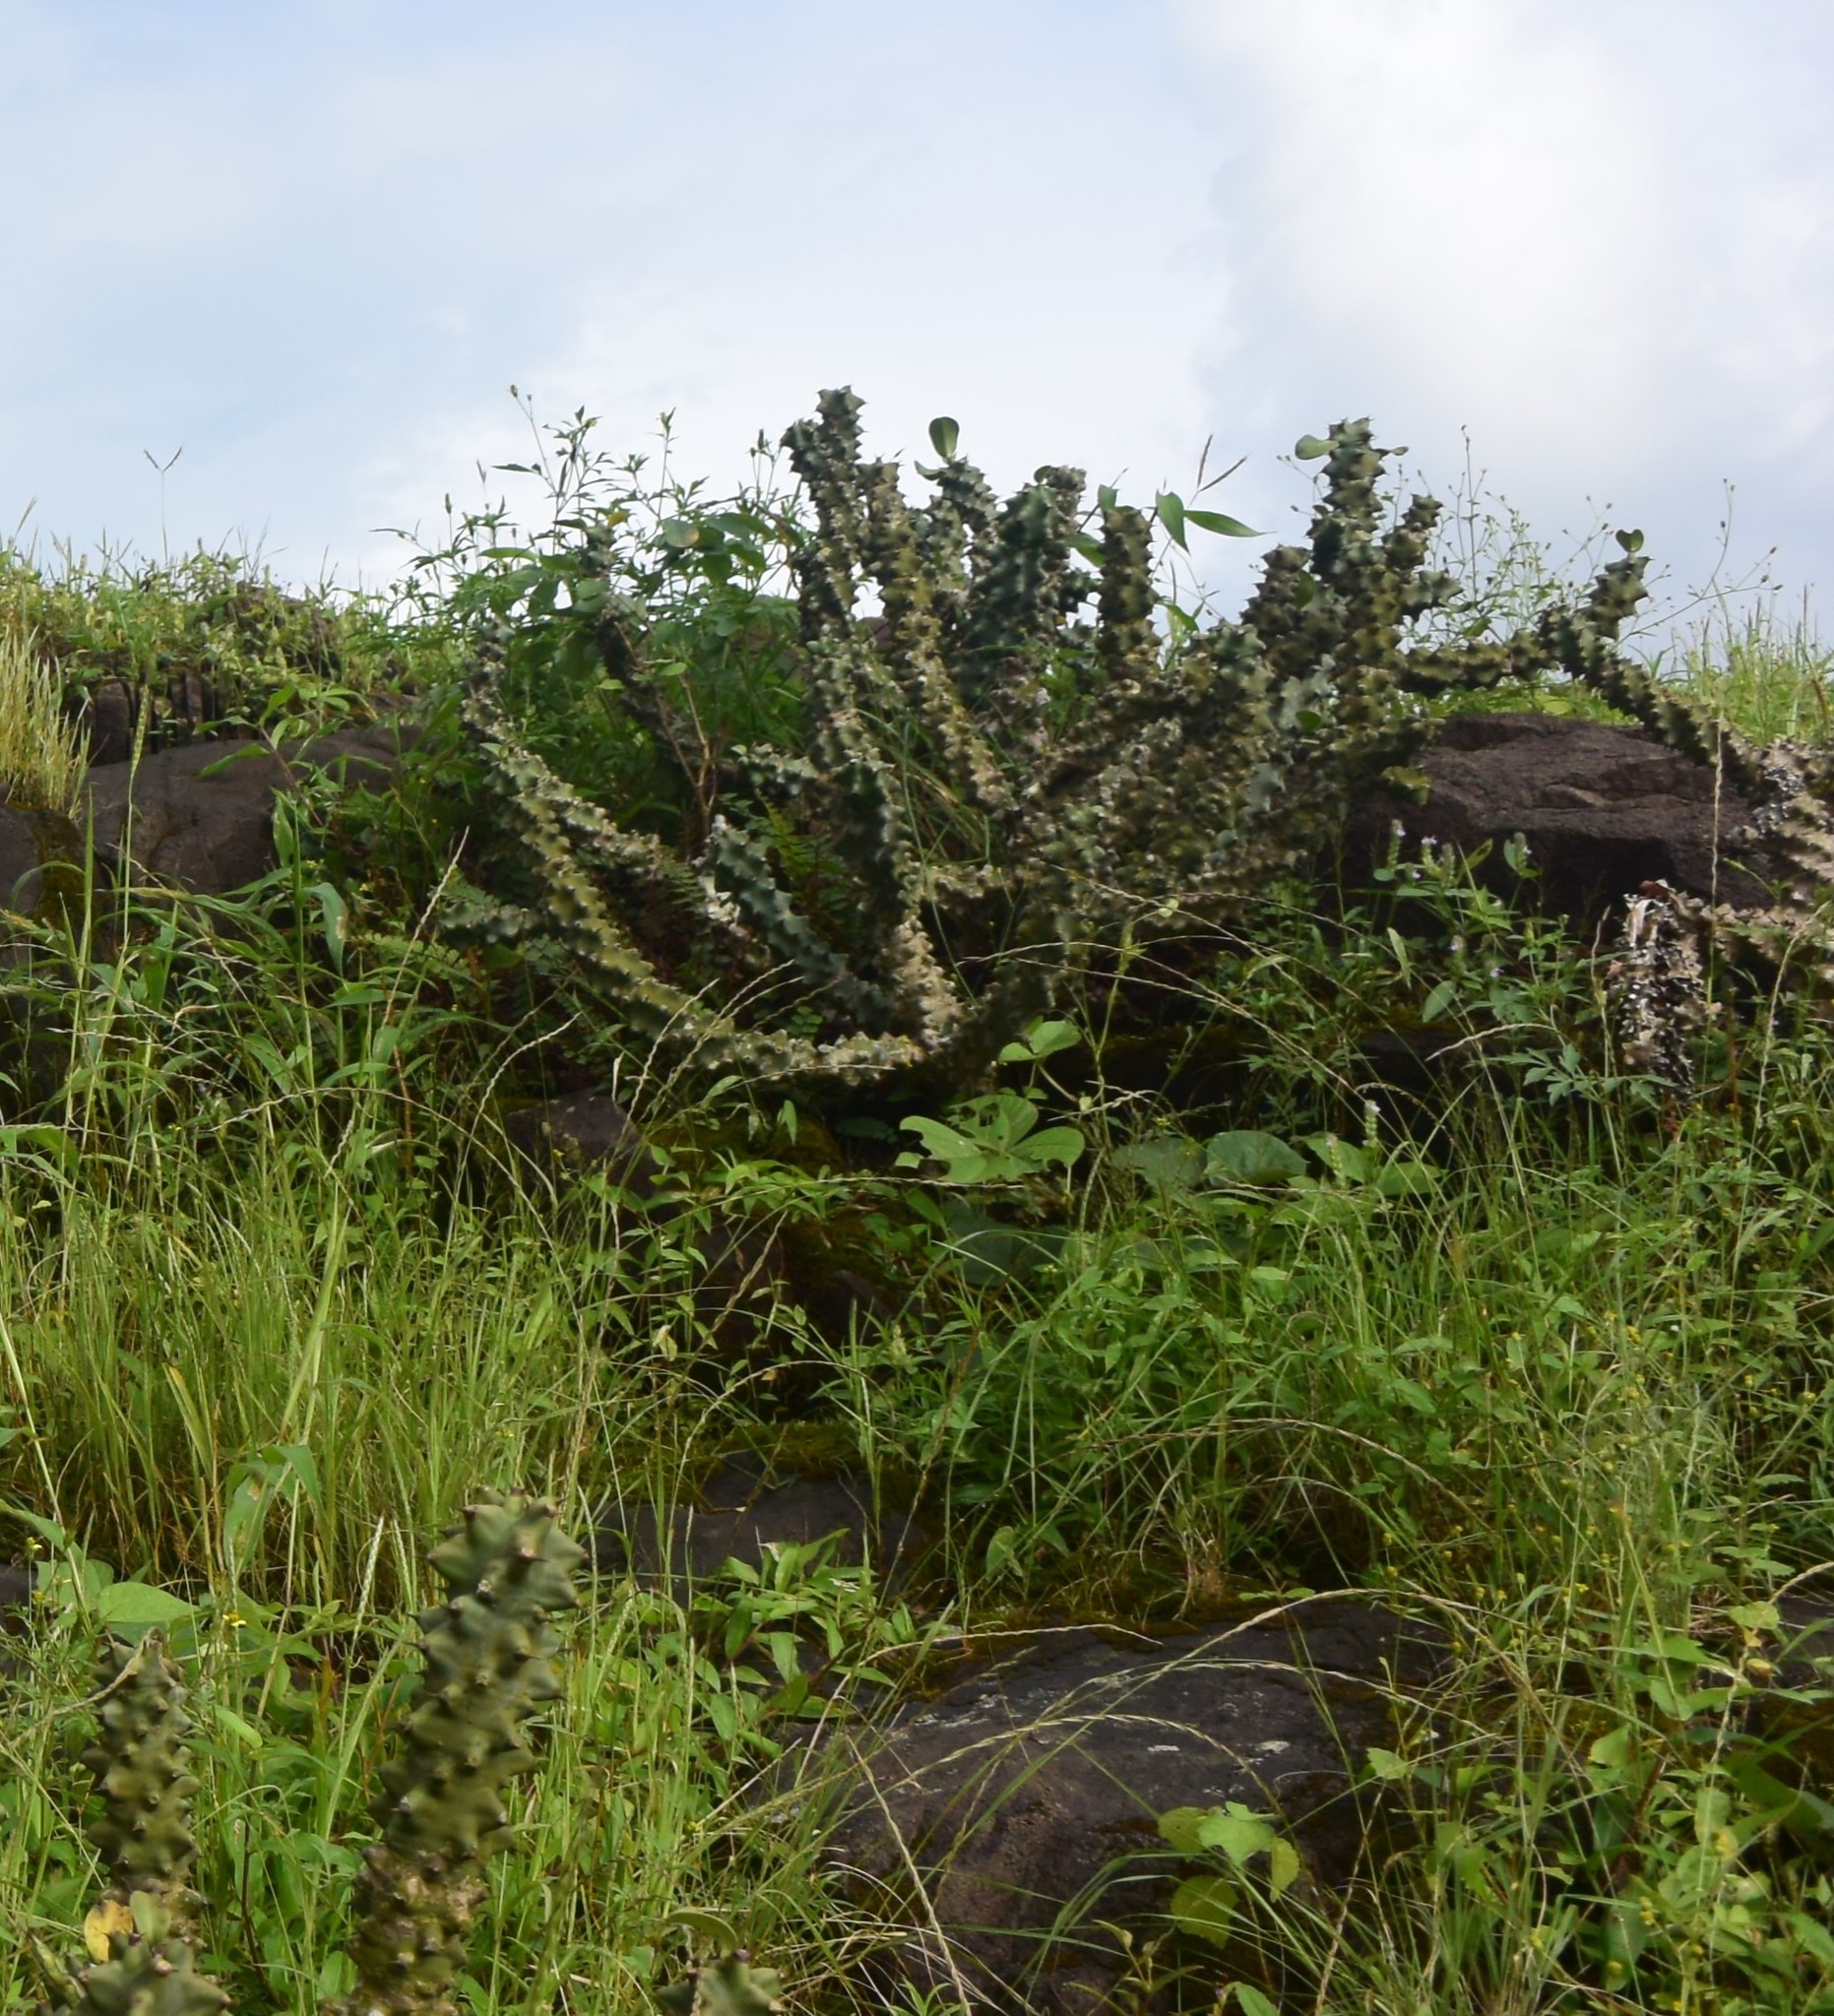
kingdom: Plantae
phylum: Tracheophyta
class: Magnoliopsida
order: Malpighiales
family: Euphorbiaceae
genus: Euphorbia
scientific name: Euphorbia neriifolia
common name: Hedge euphorbia
